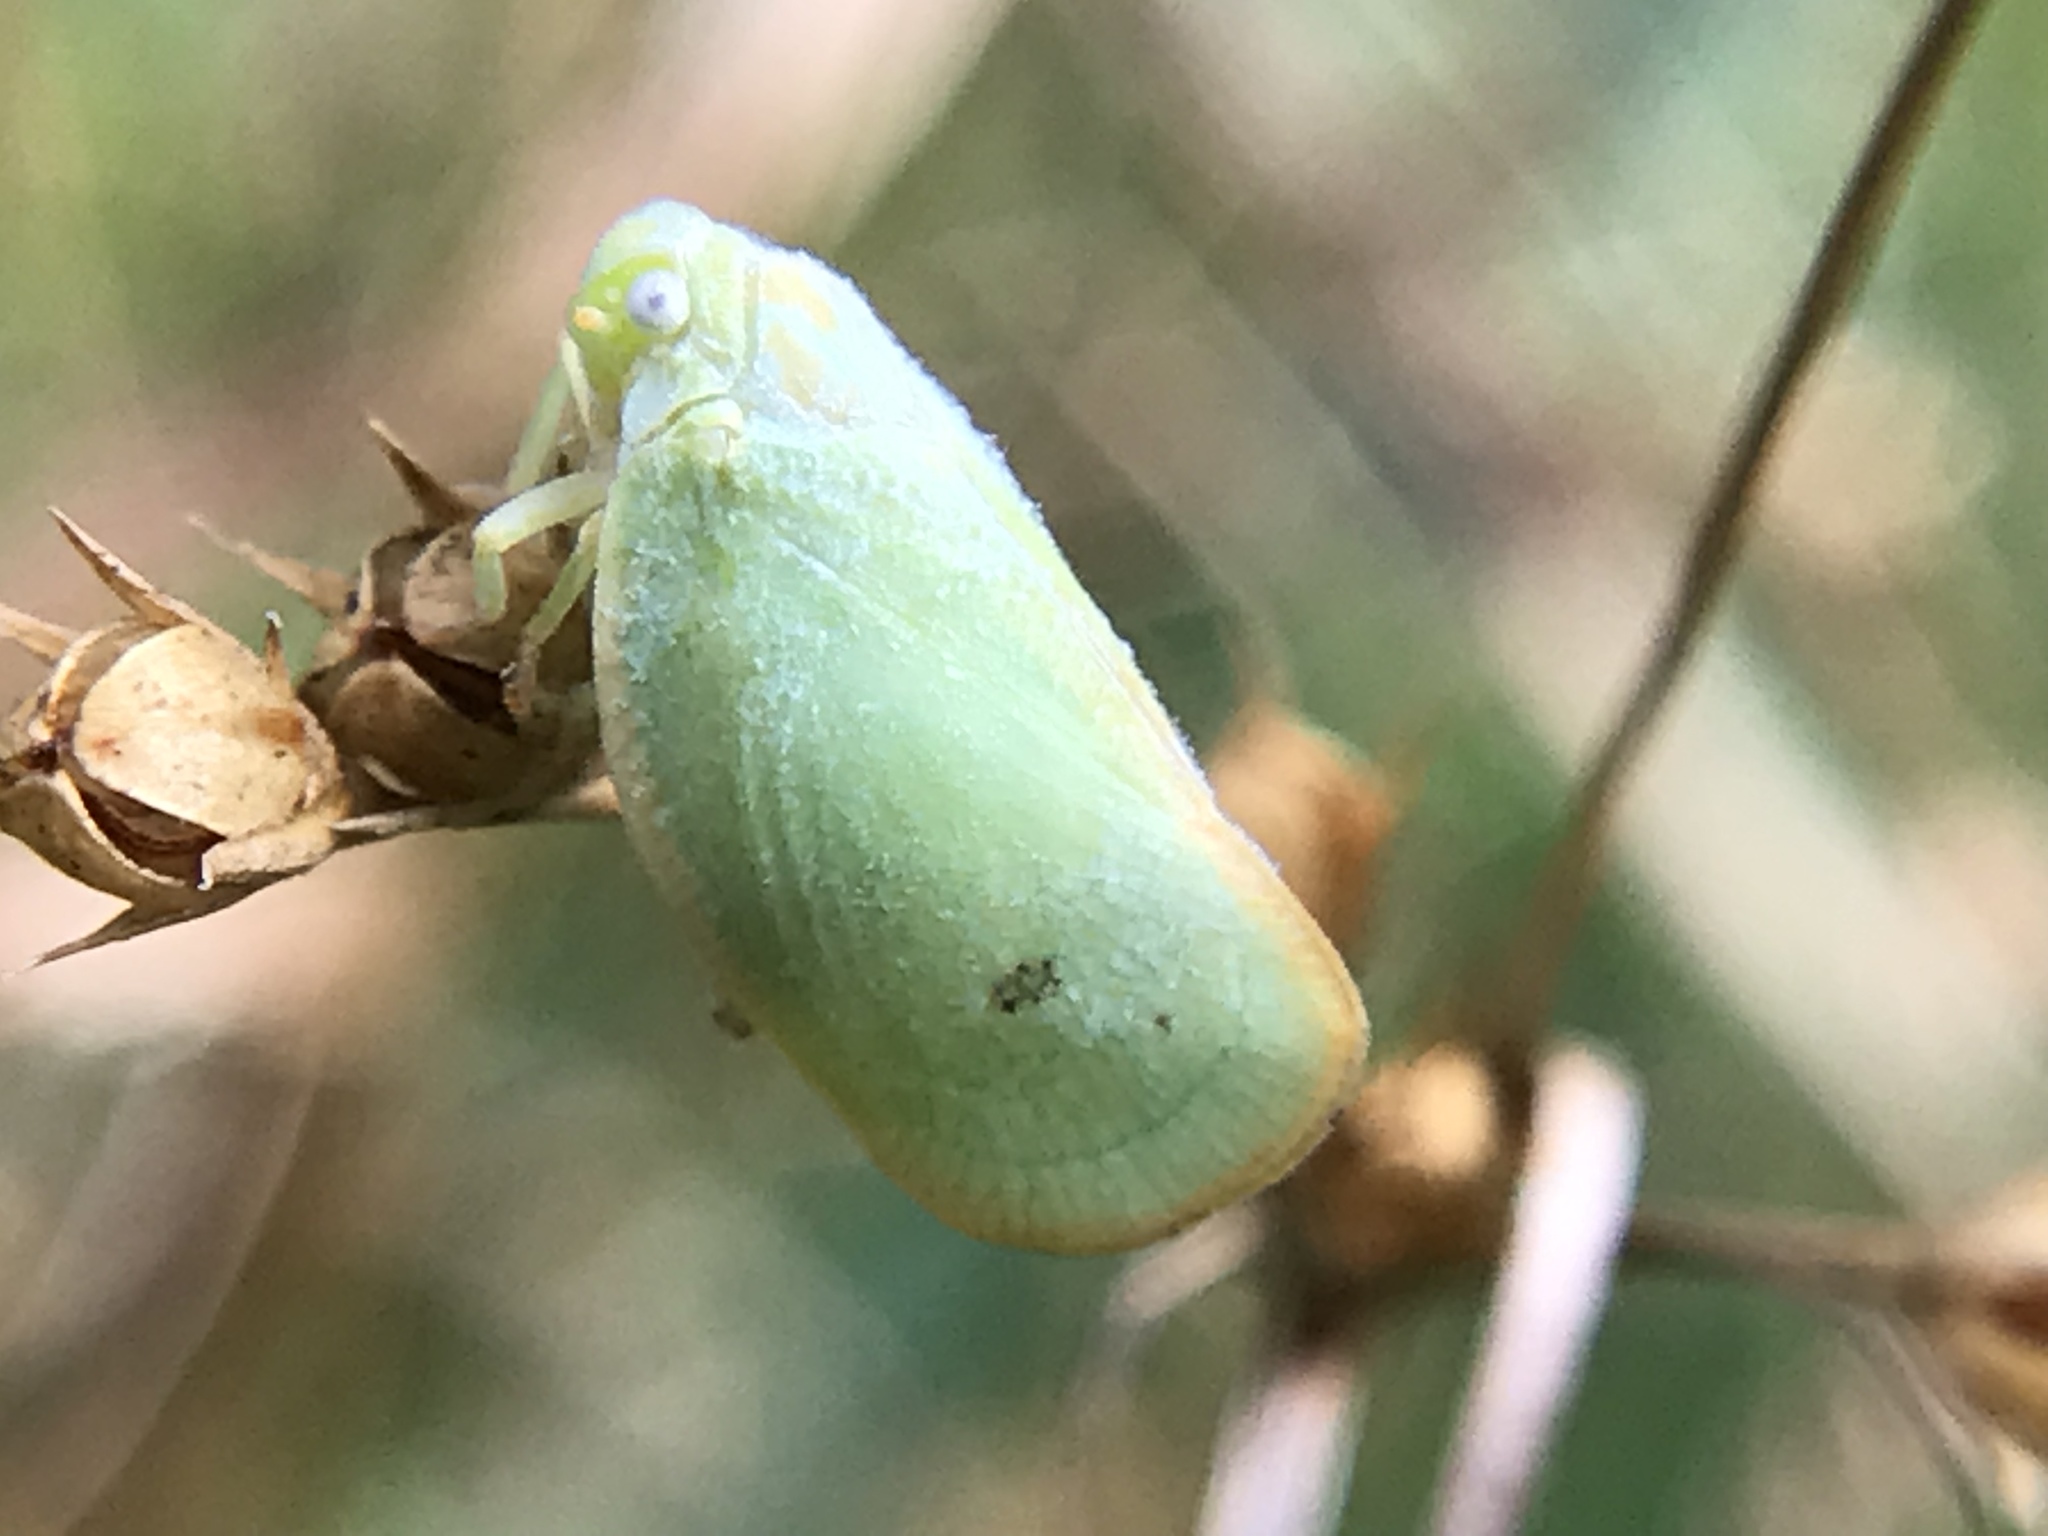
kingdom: Animalia
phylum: Arthropoda
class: Insecta
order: Hemiptera
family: Flatidae
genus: Ormenoides
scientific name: Ormenoides venusta
